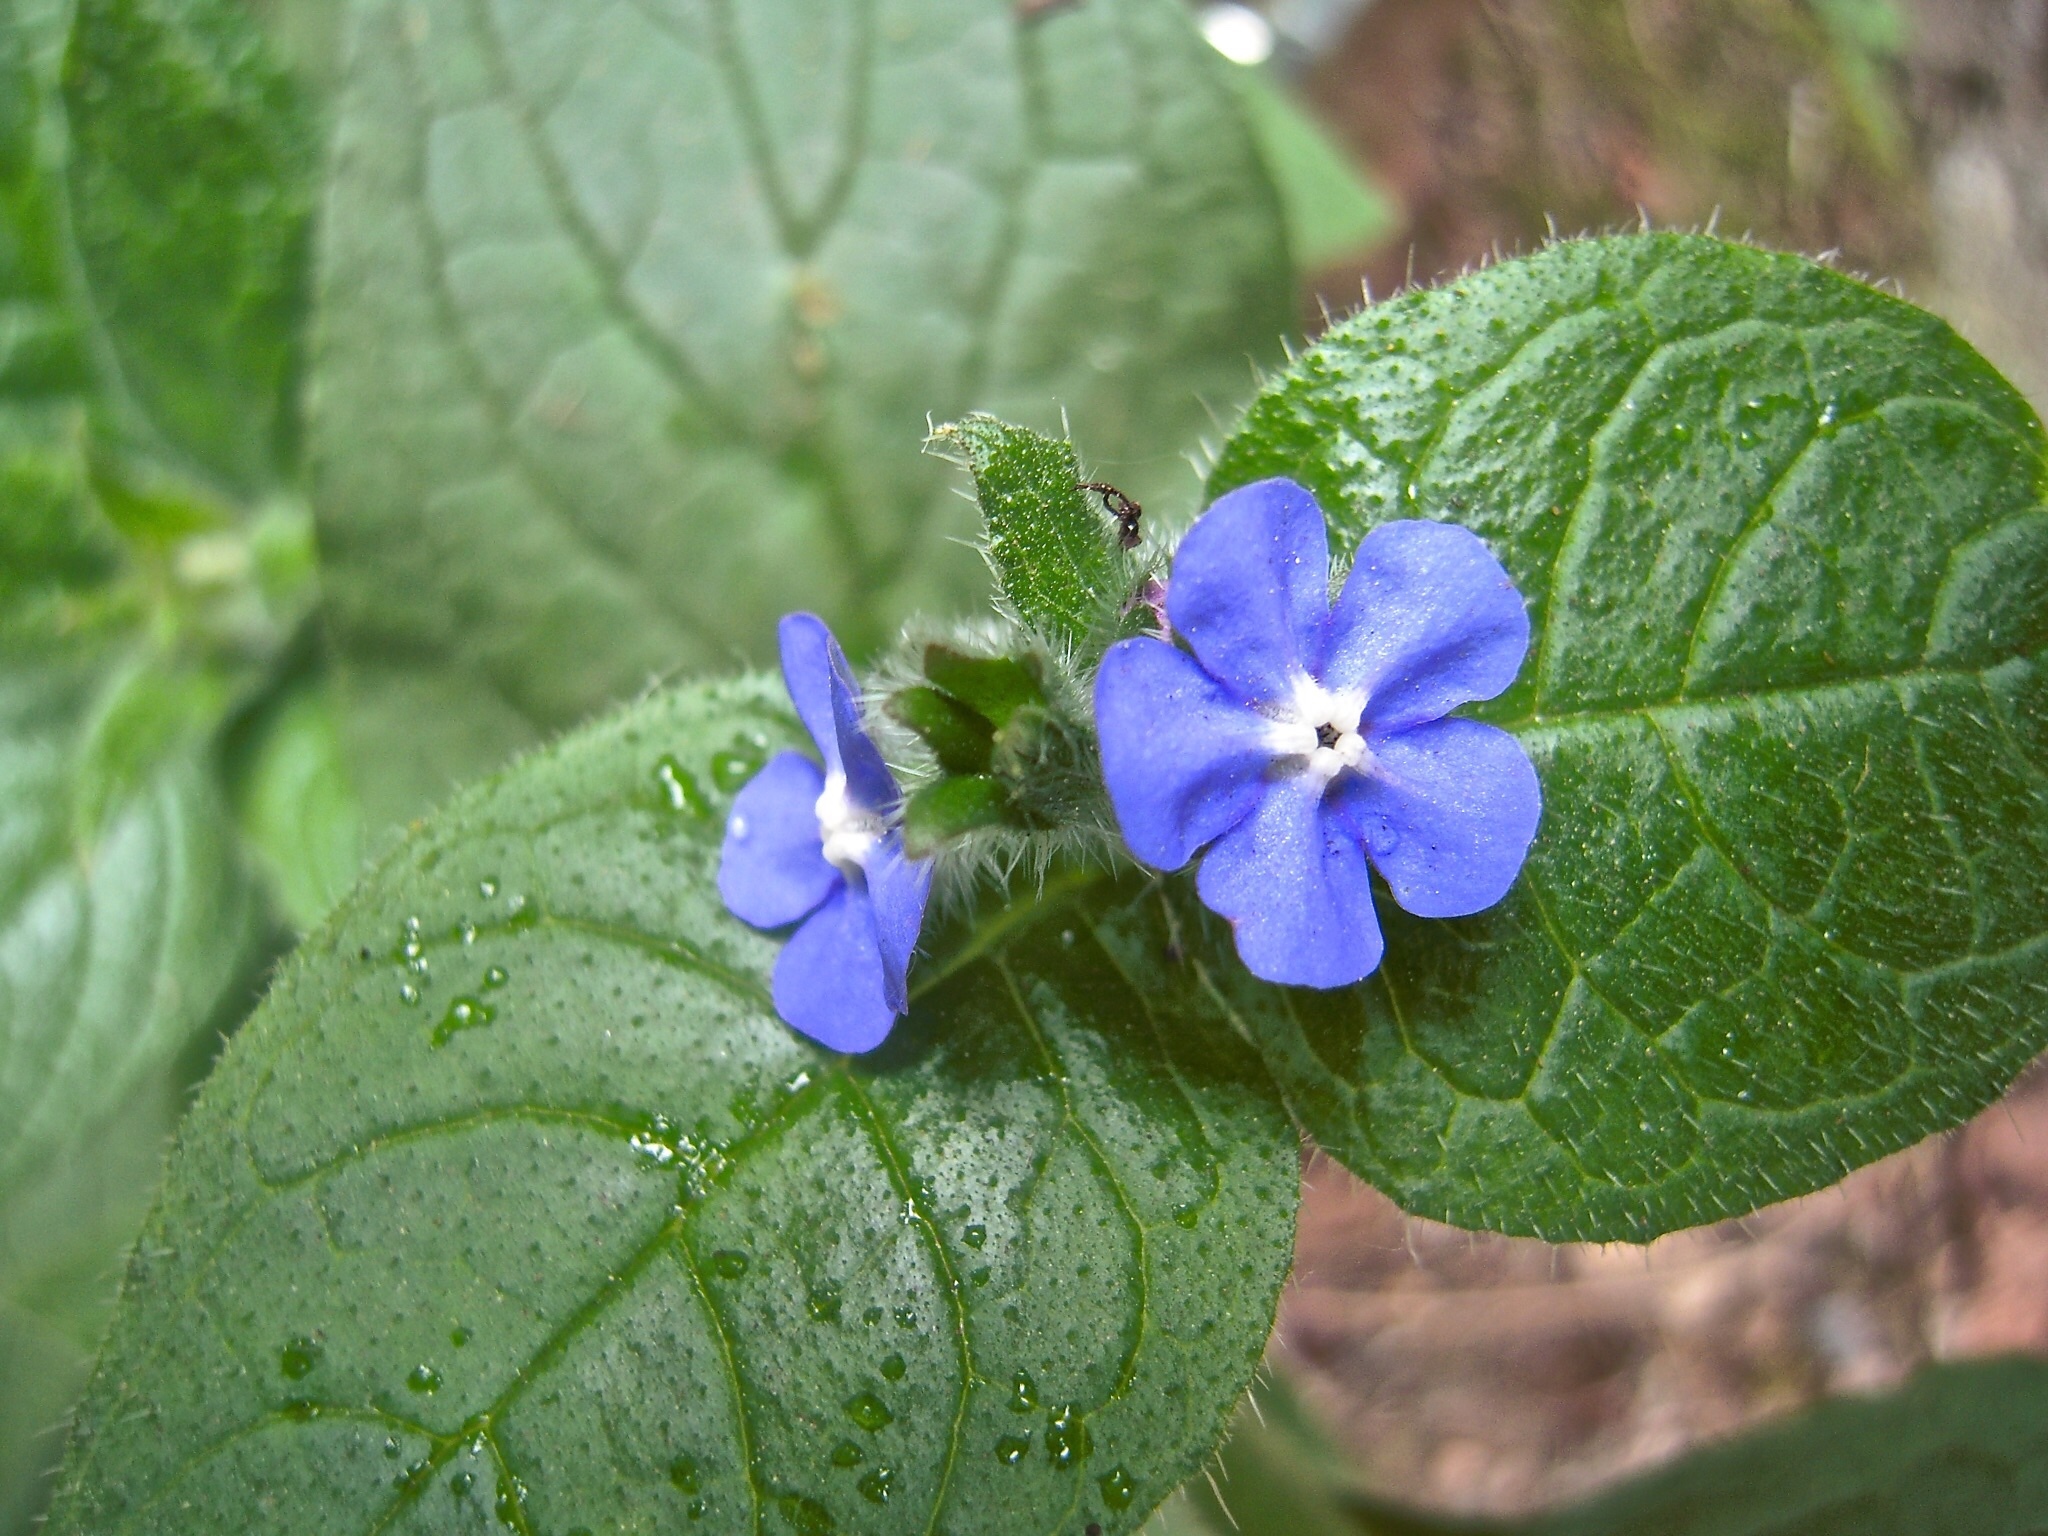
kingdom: Plantae
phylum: Tracheophyta
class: Magnoliopsida
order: Boraginales
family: Boraginaceae
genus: Pentaglottis
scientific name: Pentaglottis sempervirens
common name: Green alkanet
